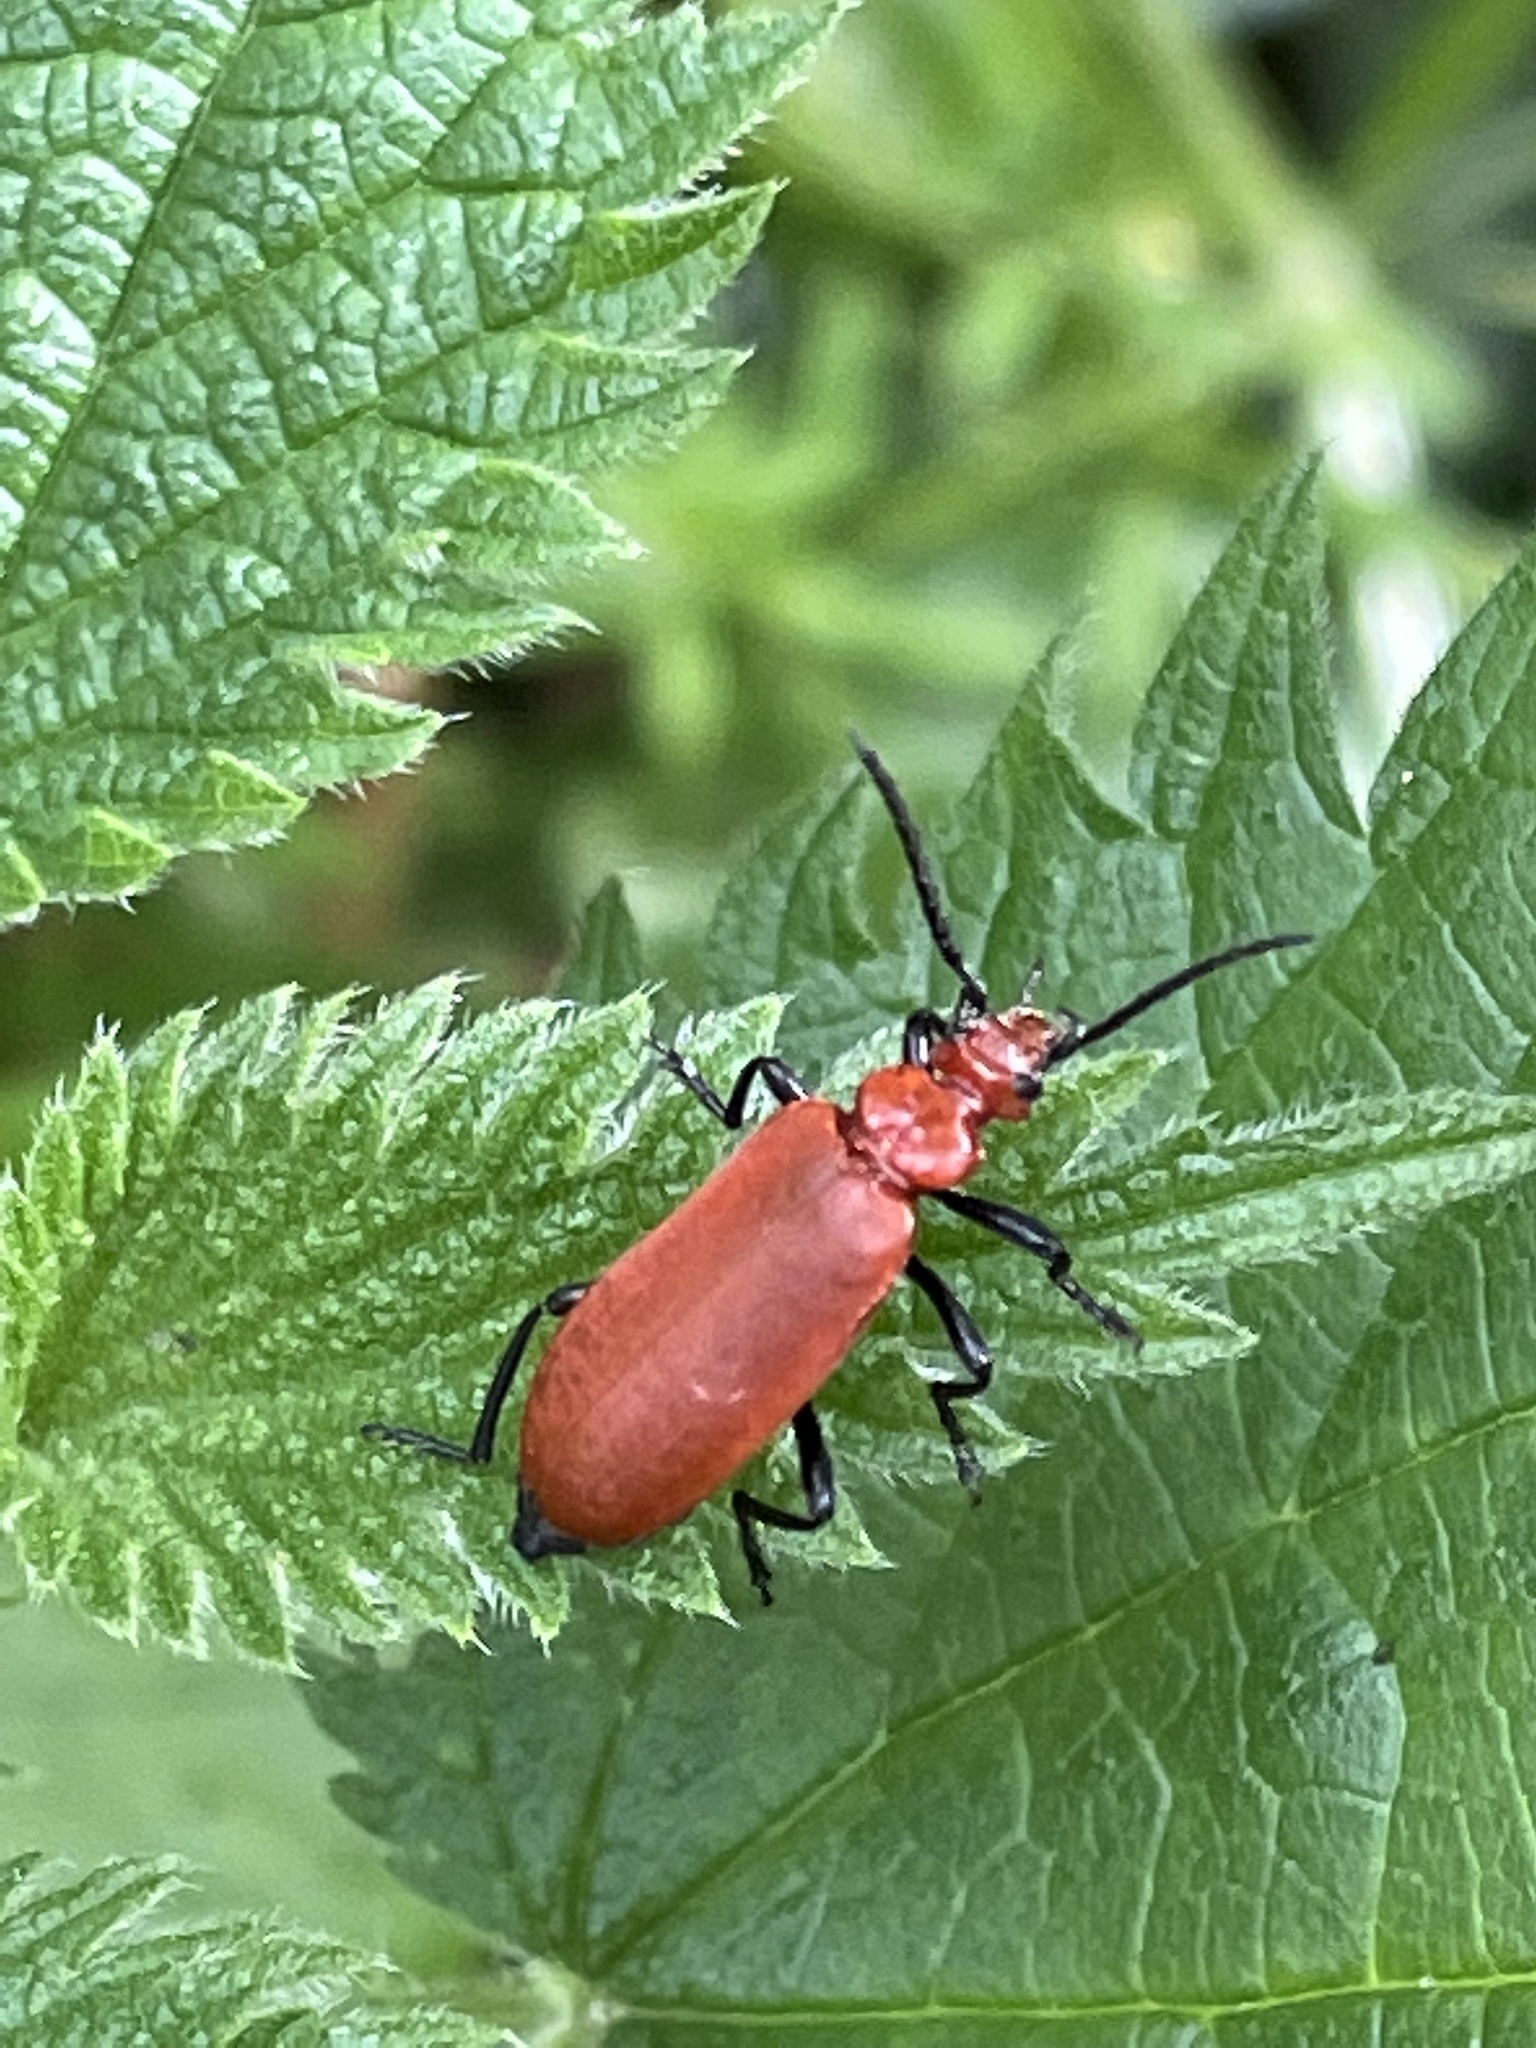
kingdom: Animalia
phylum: Arthropoda
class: Insecta
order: Coleoptera
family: Pyrochroidae
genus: Pyrochroa
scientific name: Pyrochroa serraticornis
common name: Red-headed cardinal beetle
